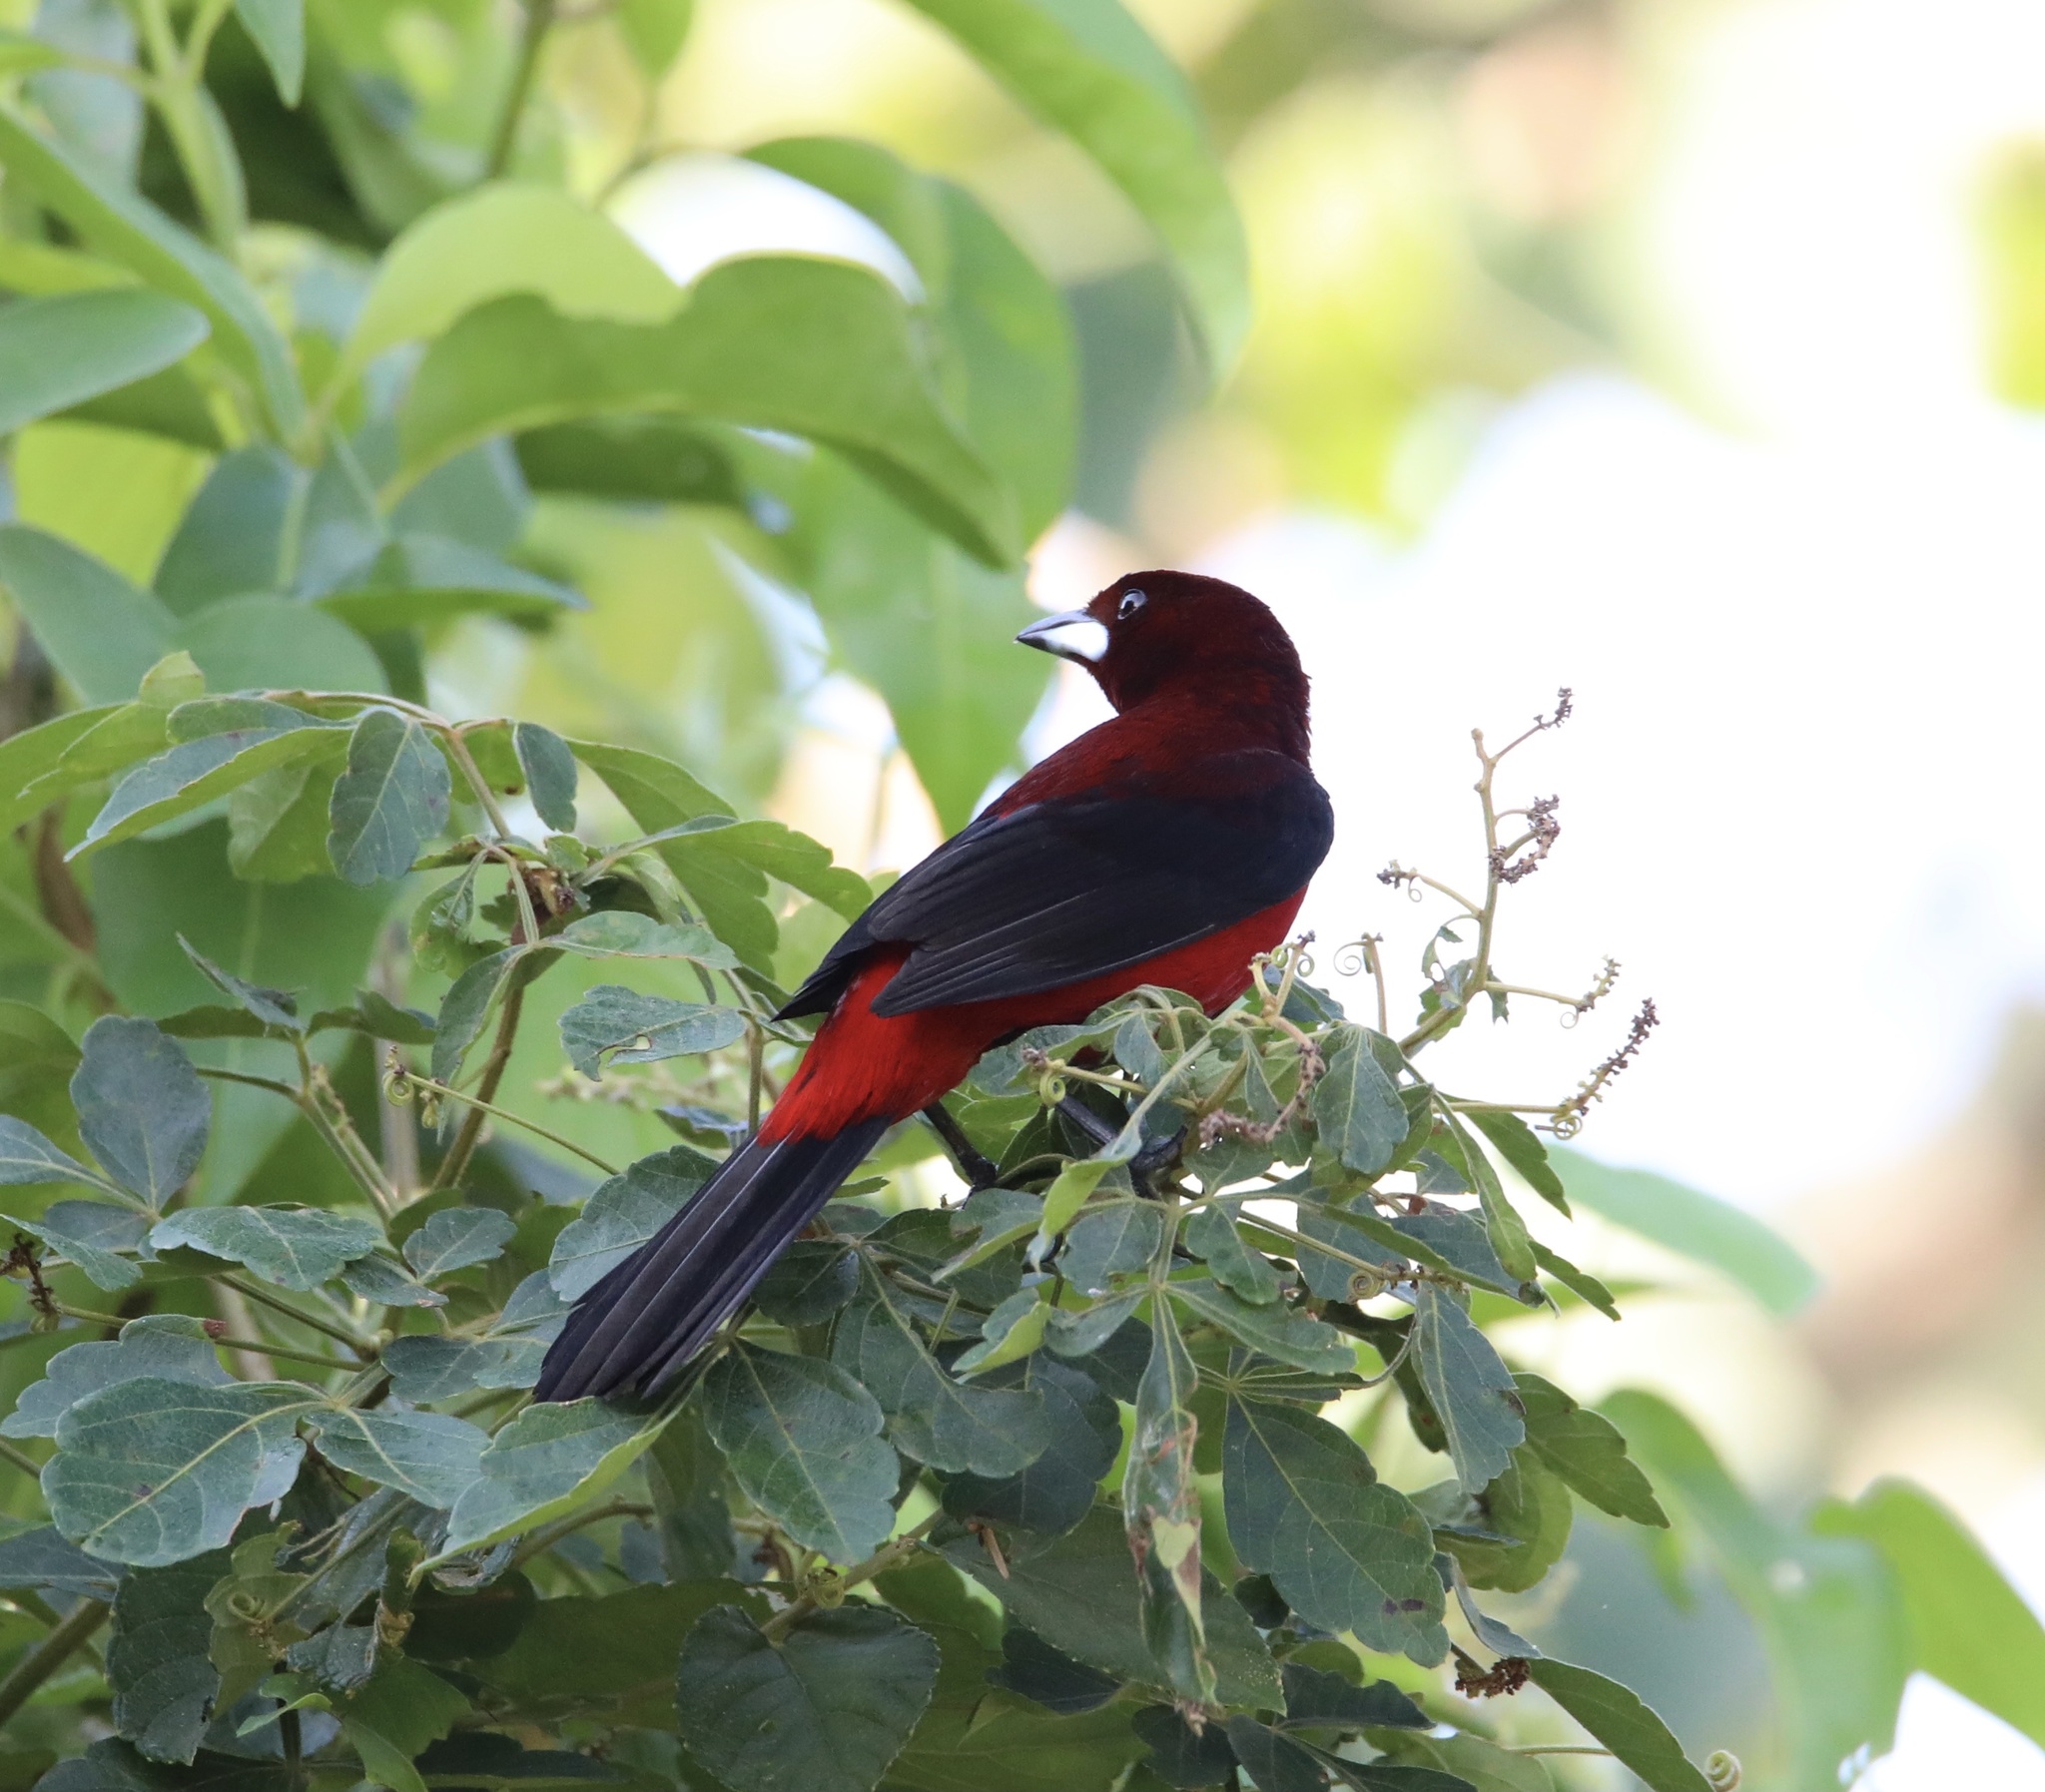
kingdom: Animalia
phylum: Chordata
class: Aves
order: Passeriformes
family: Thraupidae
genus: Ramphocelus
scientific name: Ramphocelus dimidiatus
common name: Crimson-backed tanager
